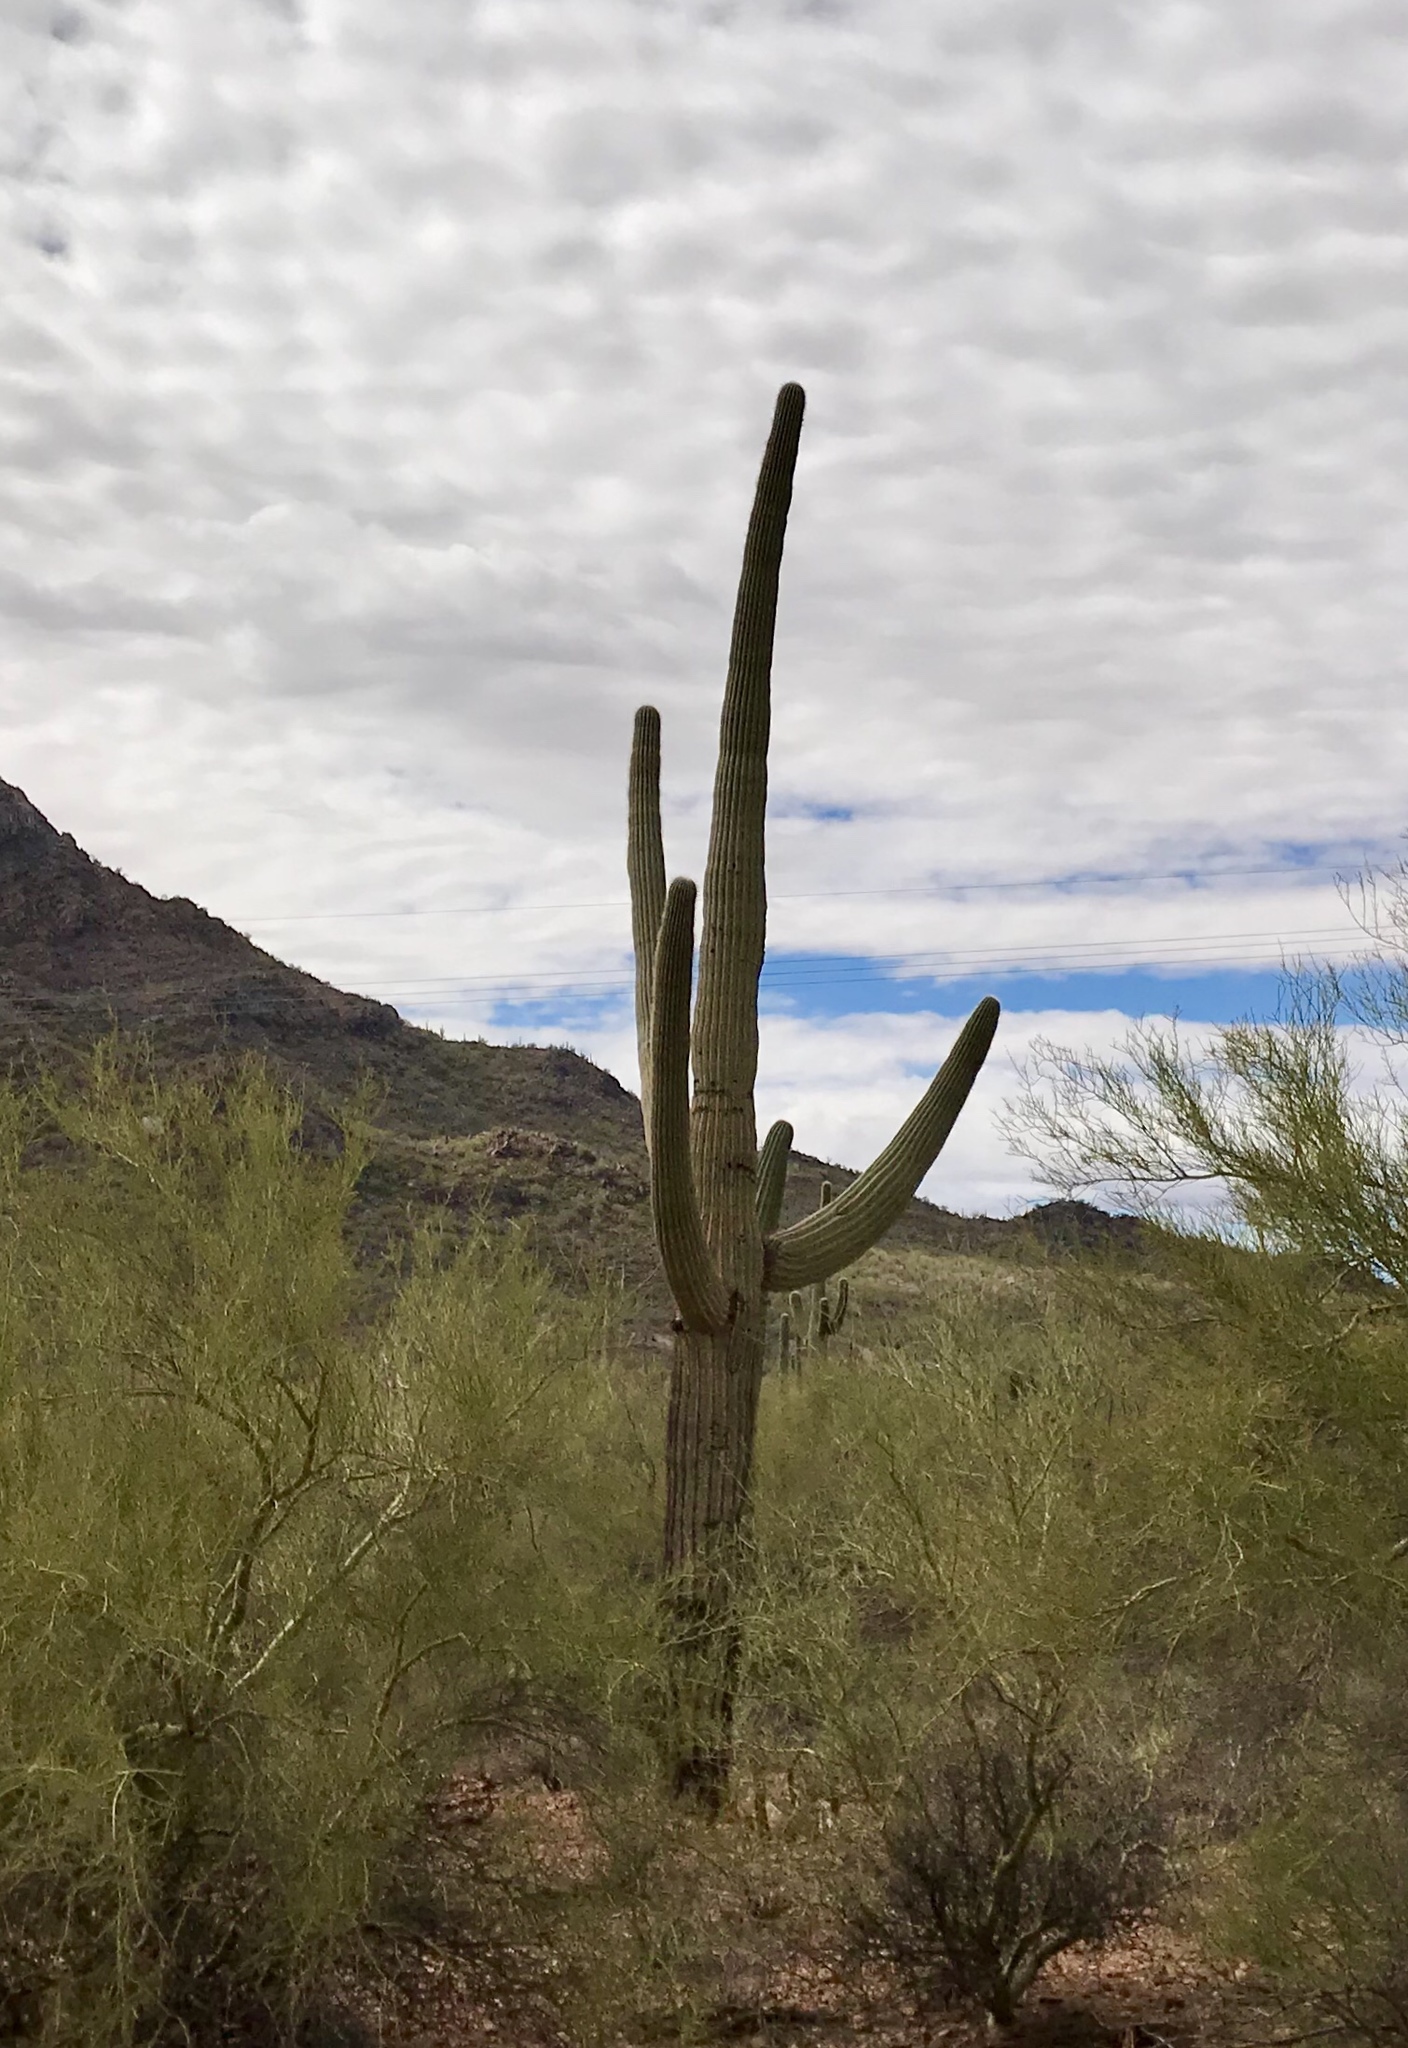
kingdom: Plantae
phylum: Tracheophyta
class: Magnoliopsida
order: Caryophyllales
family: Cactaceae
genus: Carnegiea
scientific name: Carnegiea gigantea
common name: Saguaro
